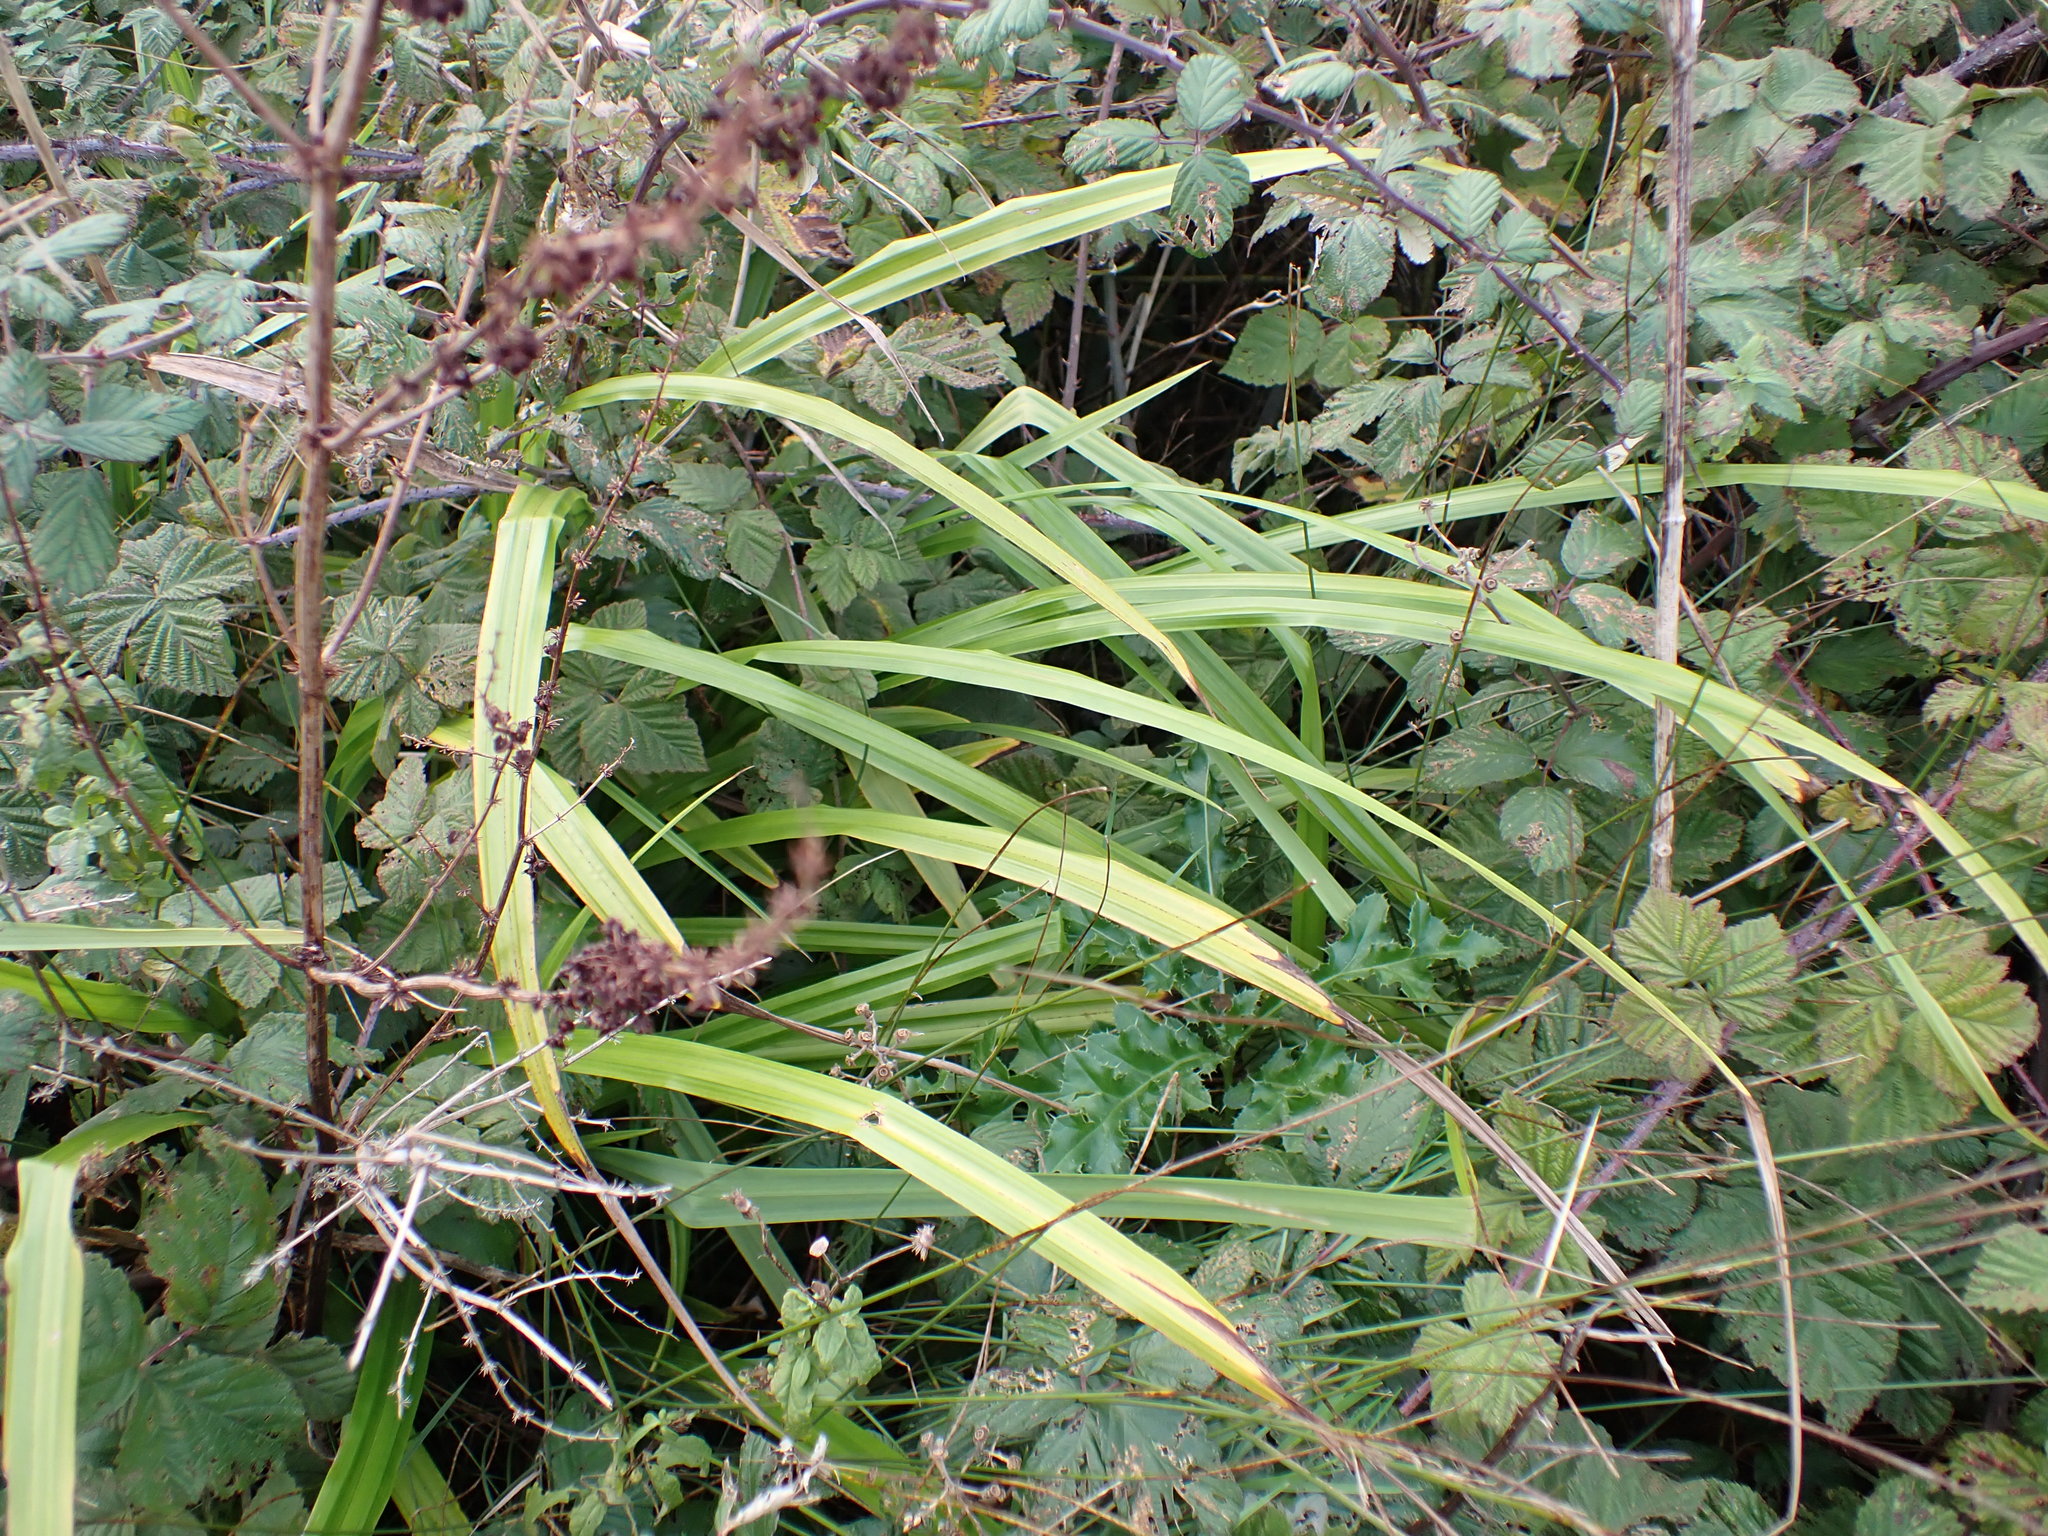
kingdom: Plantae
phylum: Tracheophyta
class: Liliopsida
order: Poales
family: Cyperaceae
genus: Carex
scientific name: Carex pendula
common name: Pendulous sedge
